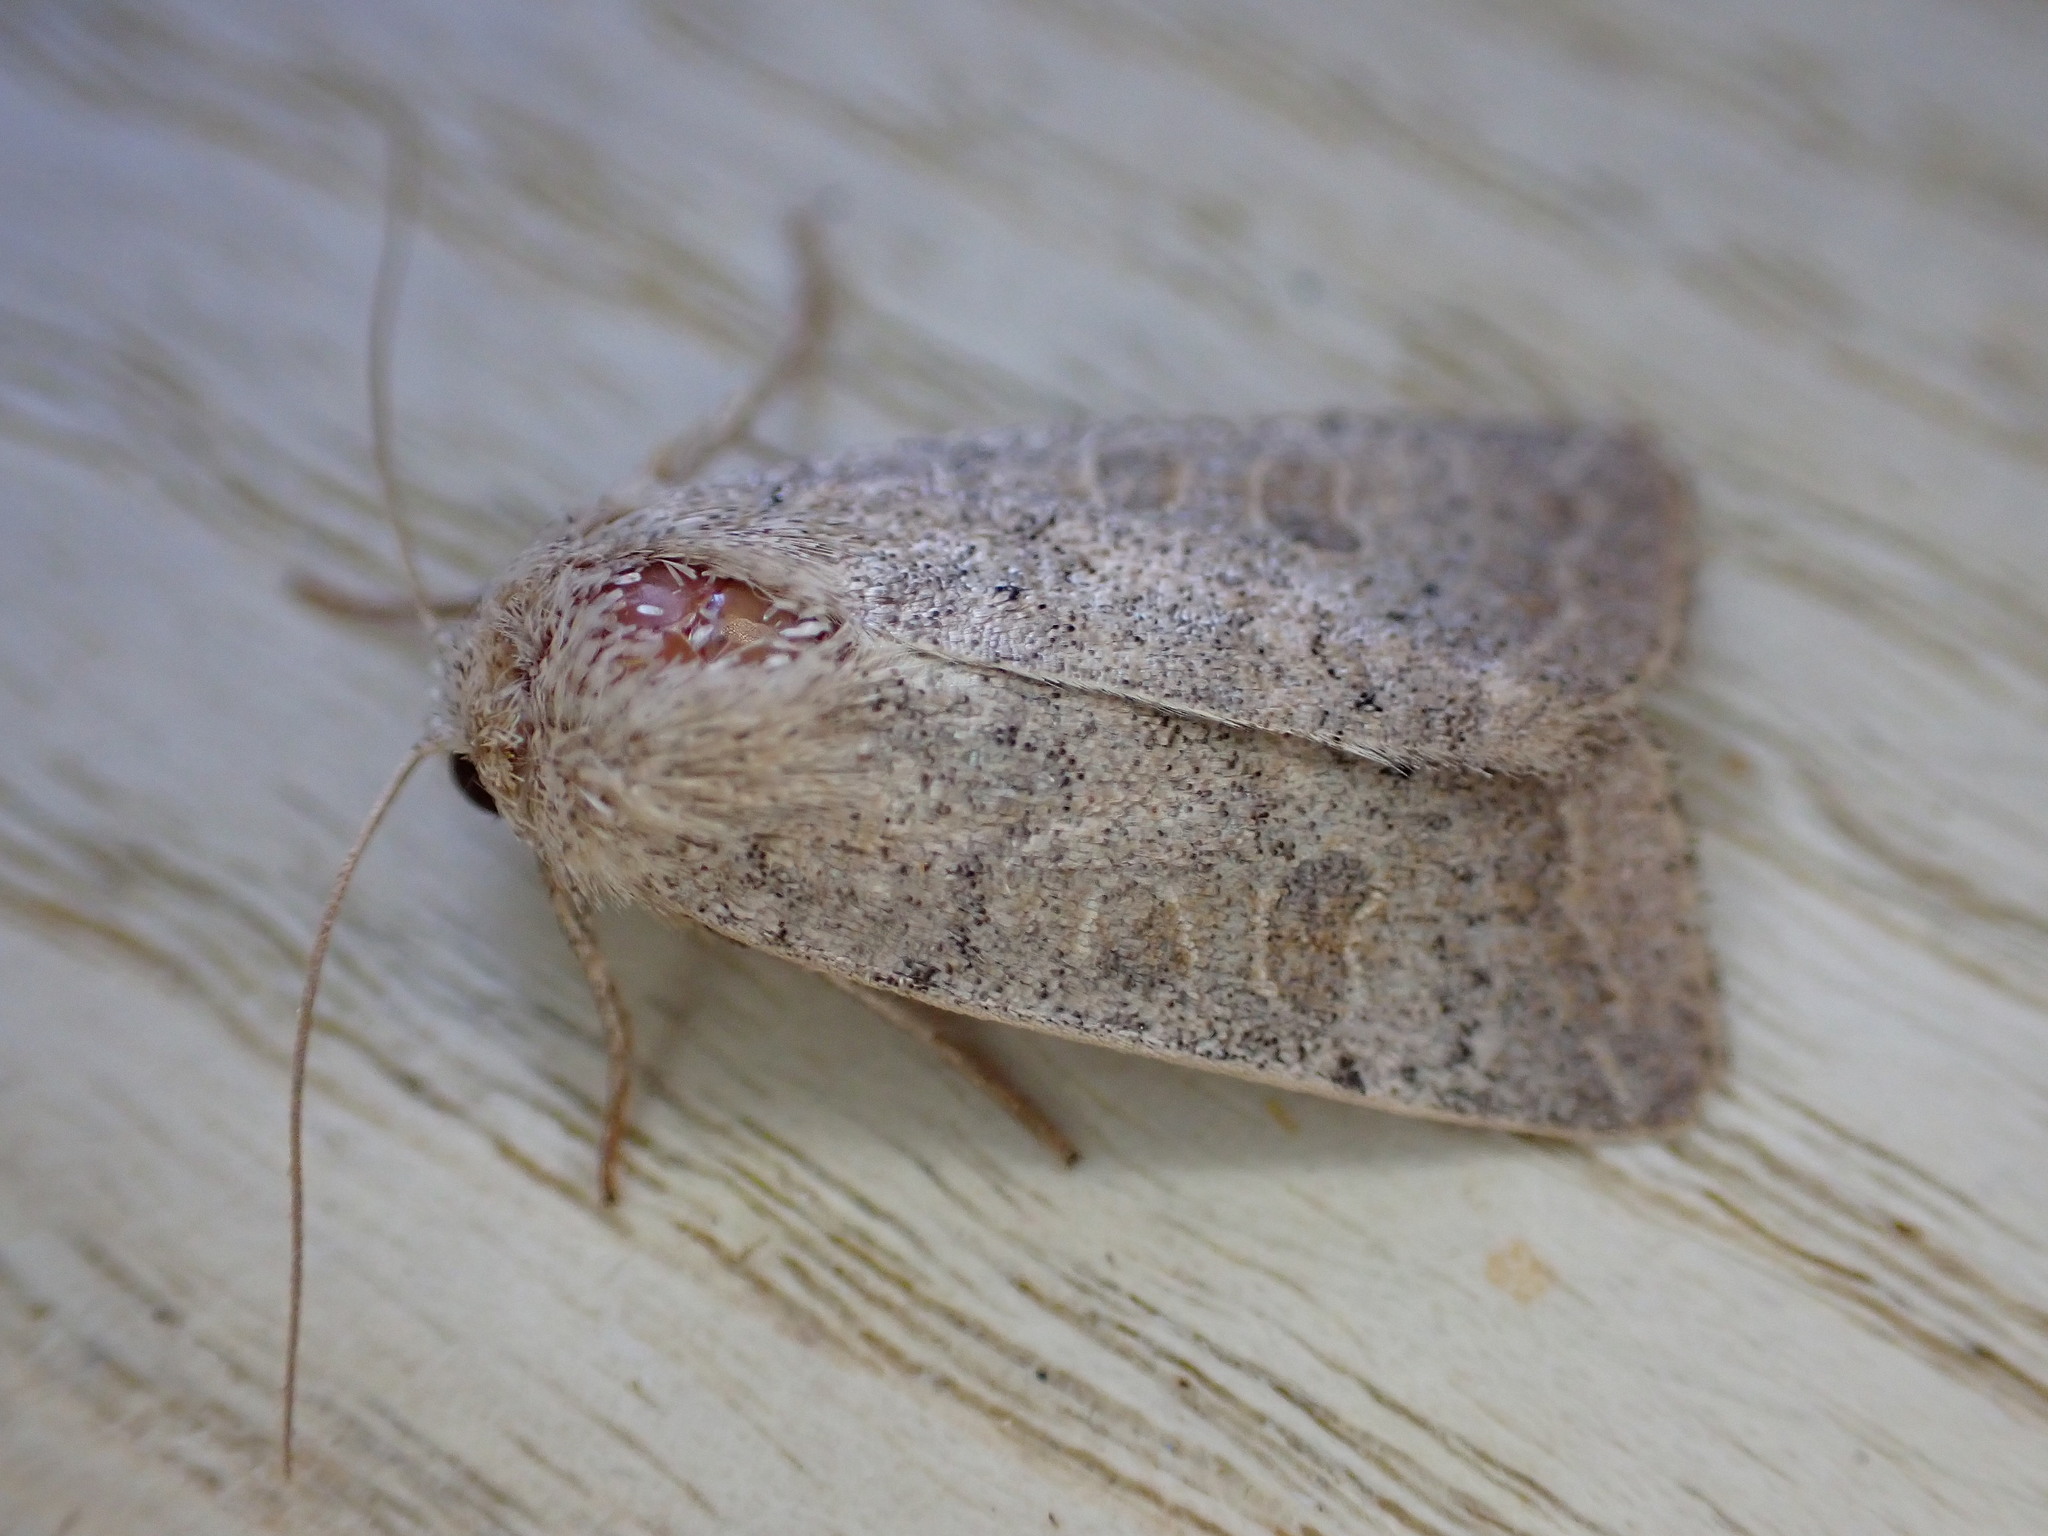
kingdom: Animalia
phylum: Arthropoda
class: Insecta
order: Lepidoptera
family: Noctuidae
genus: Hoplodrina
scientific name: Hoplodrina ambigua
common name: Vine's rustic
